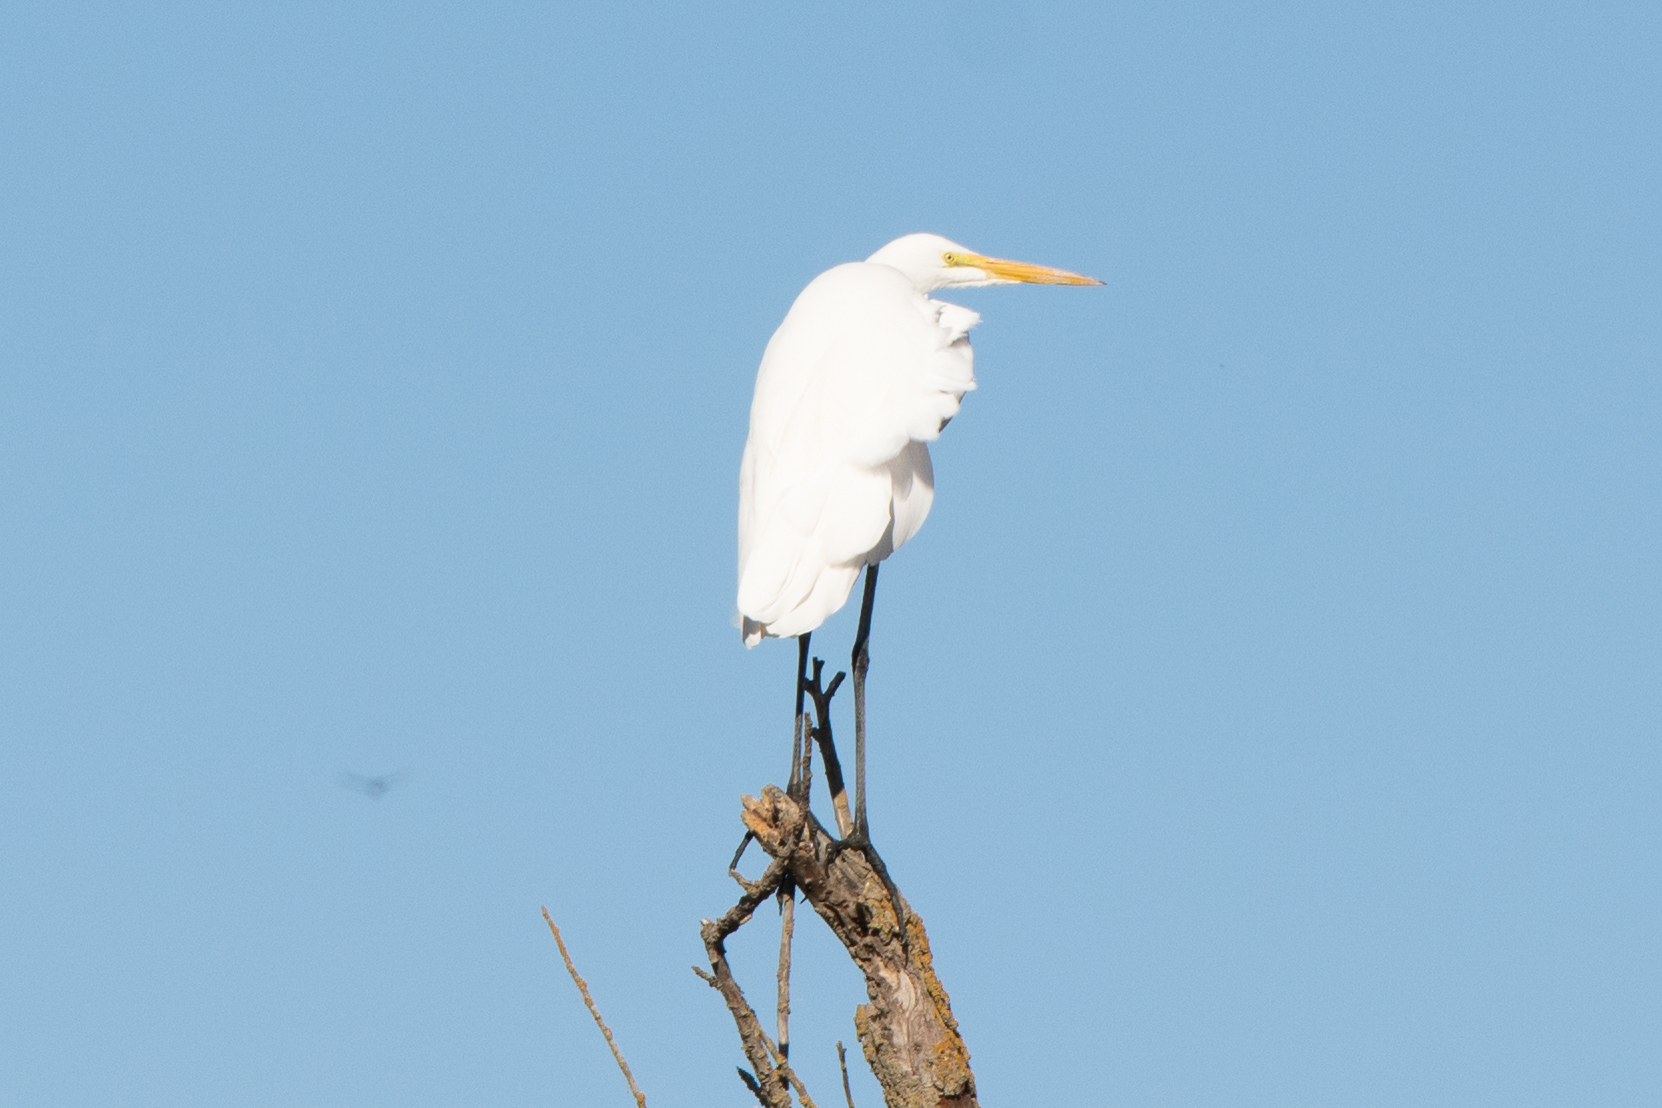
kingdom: Animalia
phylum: Chordata
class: Aves
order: Pelecaniformes
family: Ardeidae
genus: Ardea
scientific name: Ardea alba
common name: Great egret
